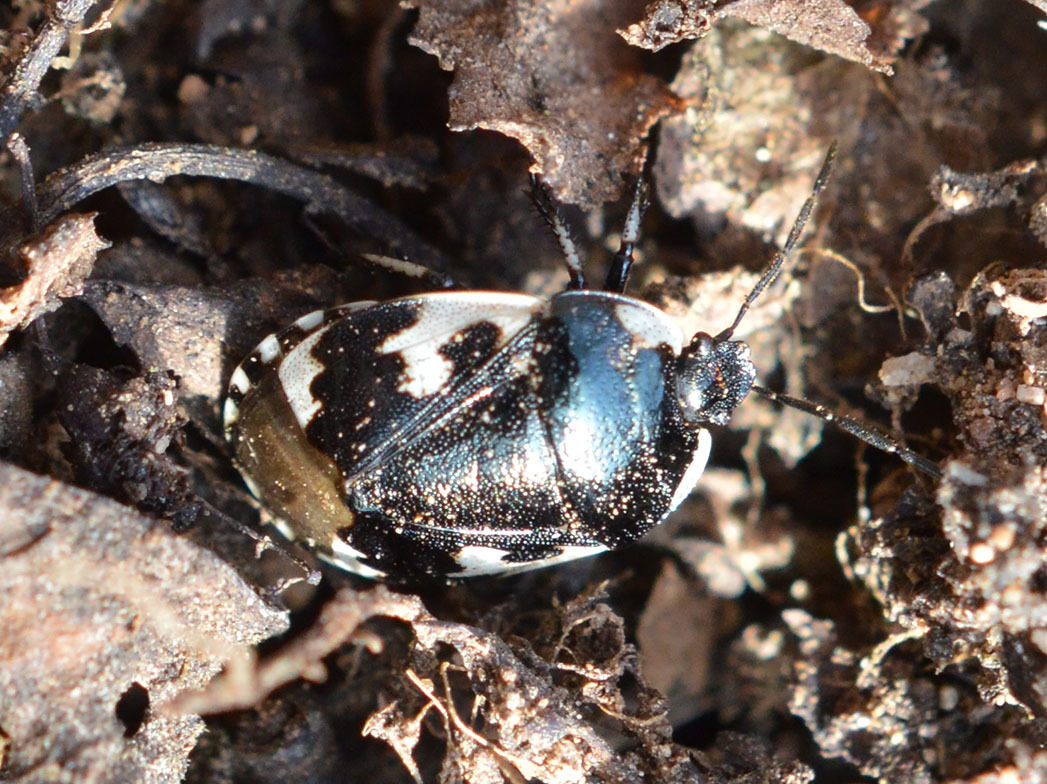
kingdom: Animalia
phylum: Arthropoda
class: Insecta
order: Hemiptera
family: Cydnidae
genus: Tritomegas
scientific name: Tritomegas bicolor
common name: Pied shieldbug
